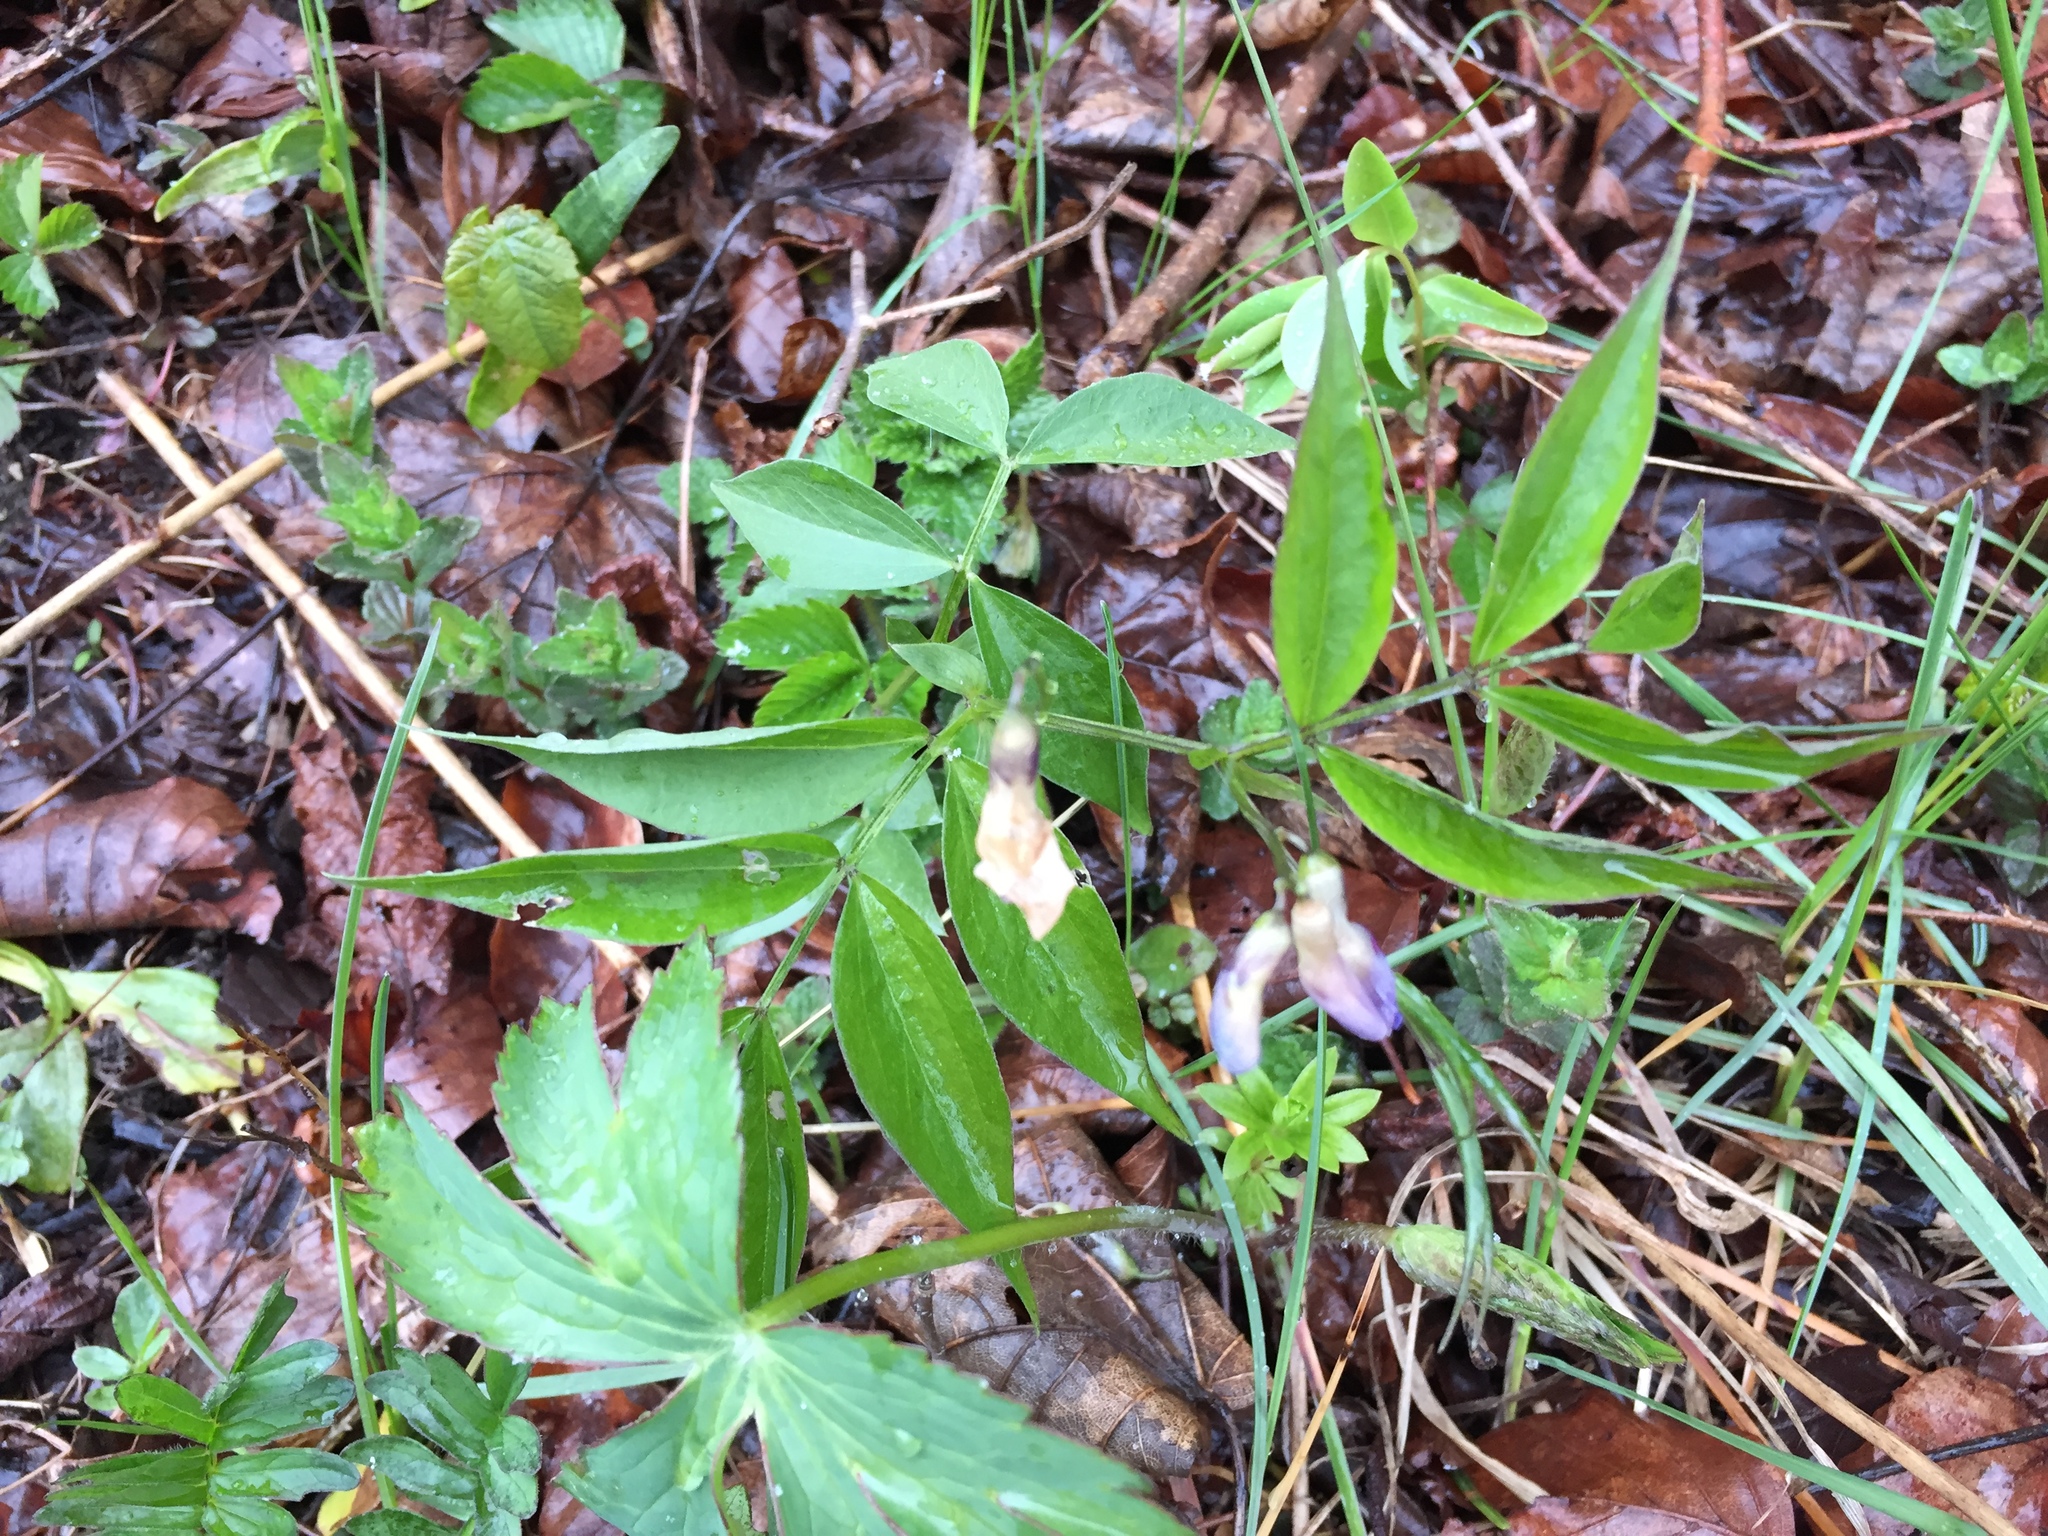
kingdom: Plantae
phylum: Tracheophyta
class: Magnoliopsida
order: Fabales
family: Fabaceae
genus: Lathyrus
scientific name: Lathyrus vernus
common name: Spring pea
